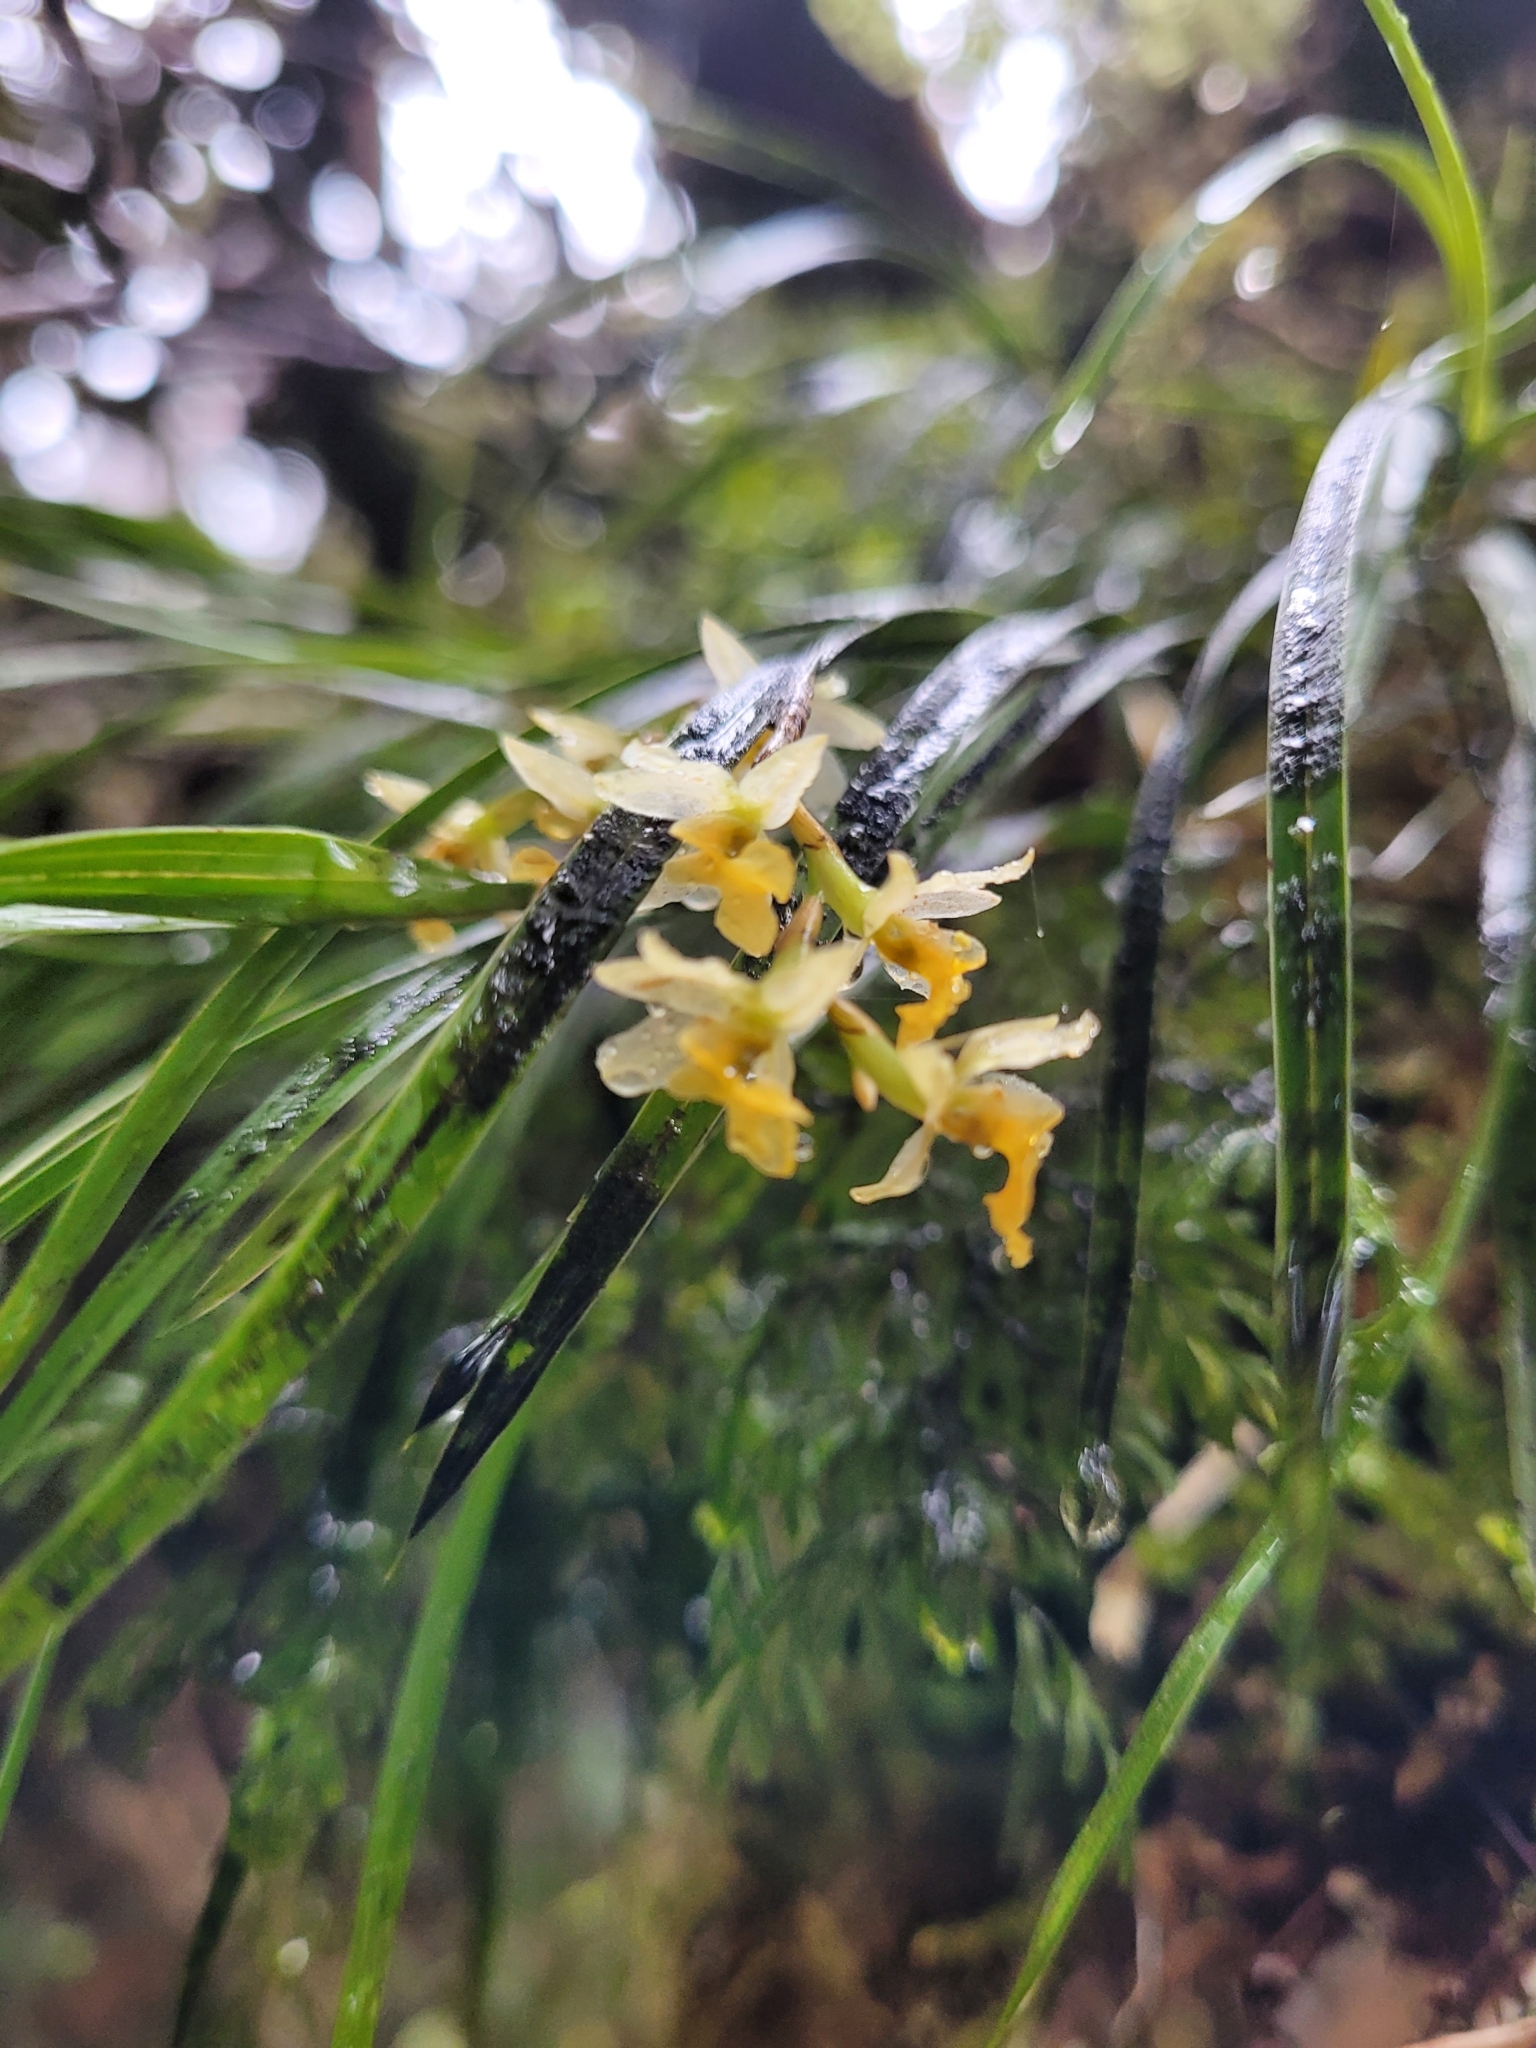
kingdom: Plantae
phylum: Tracheophyta
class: Liliopsida
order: Asparagales
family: Orchidaceae
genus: Earina
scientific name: Earina mucronata
